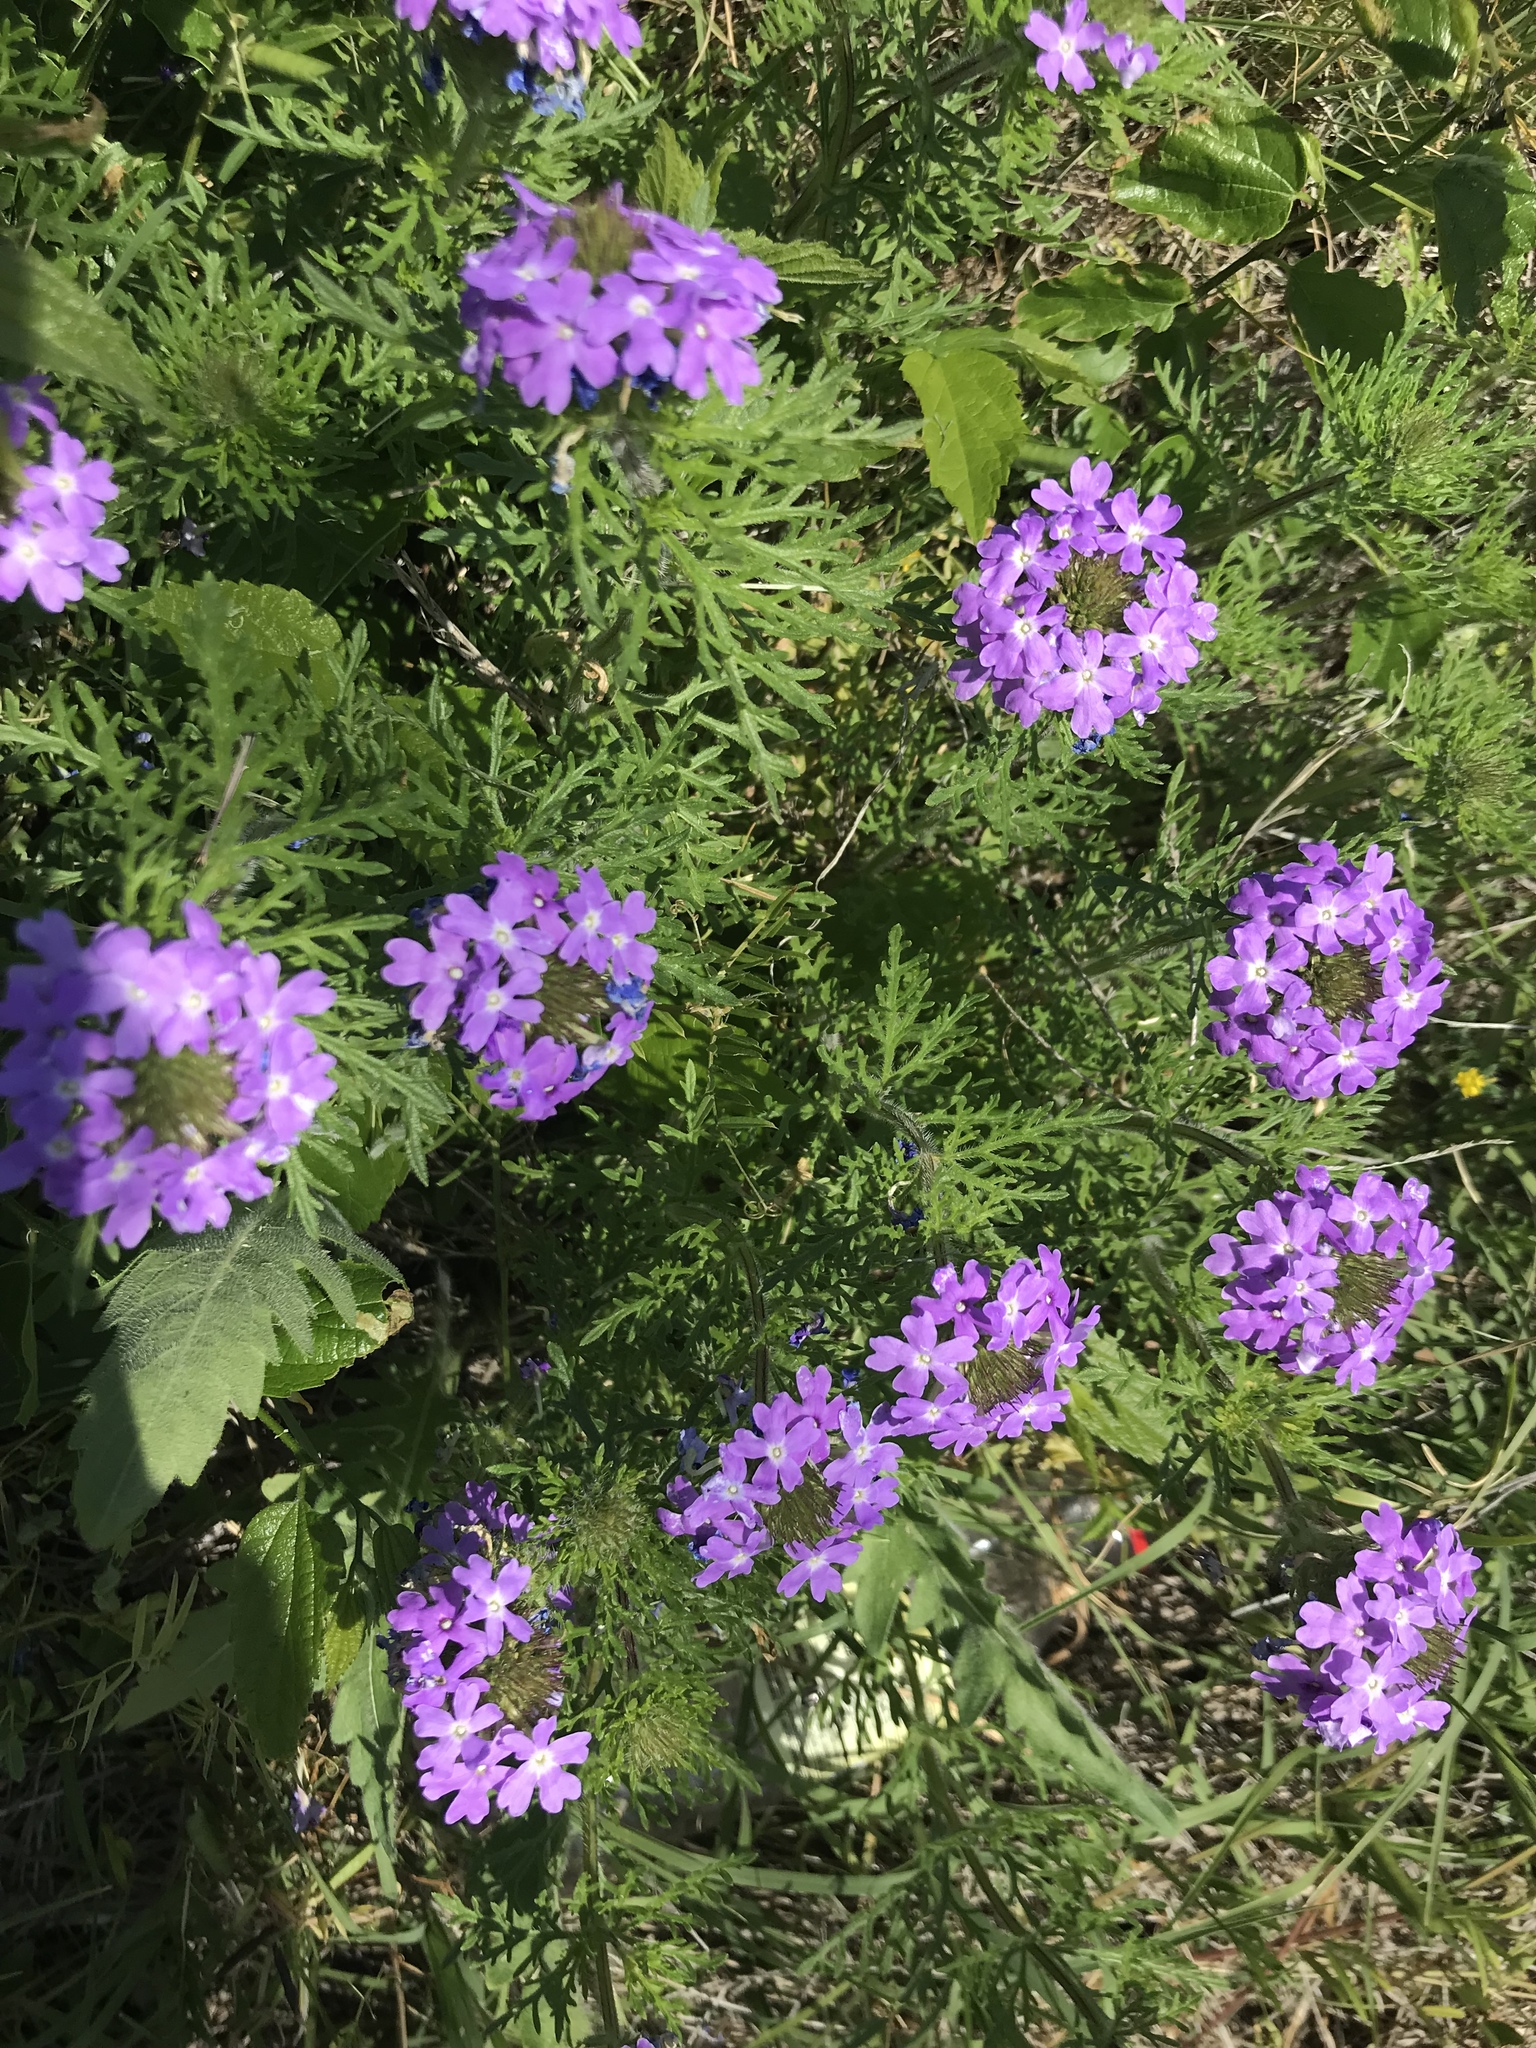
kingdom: Plantae
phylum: Tracheophyta
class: Magnoliopsida
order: Lamiales
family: Verbenaceae
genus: Verbena
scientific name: Verbena bipinnatifida
